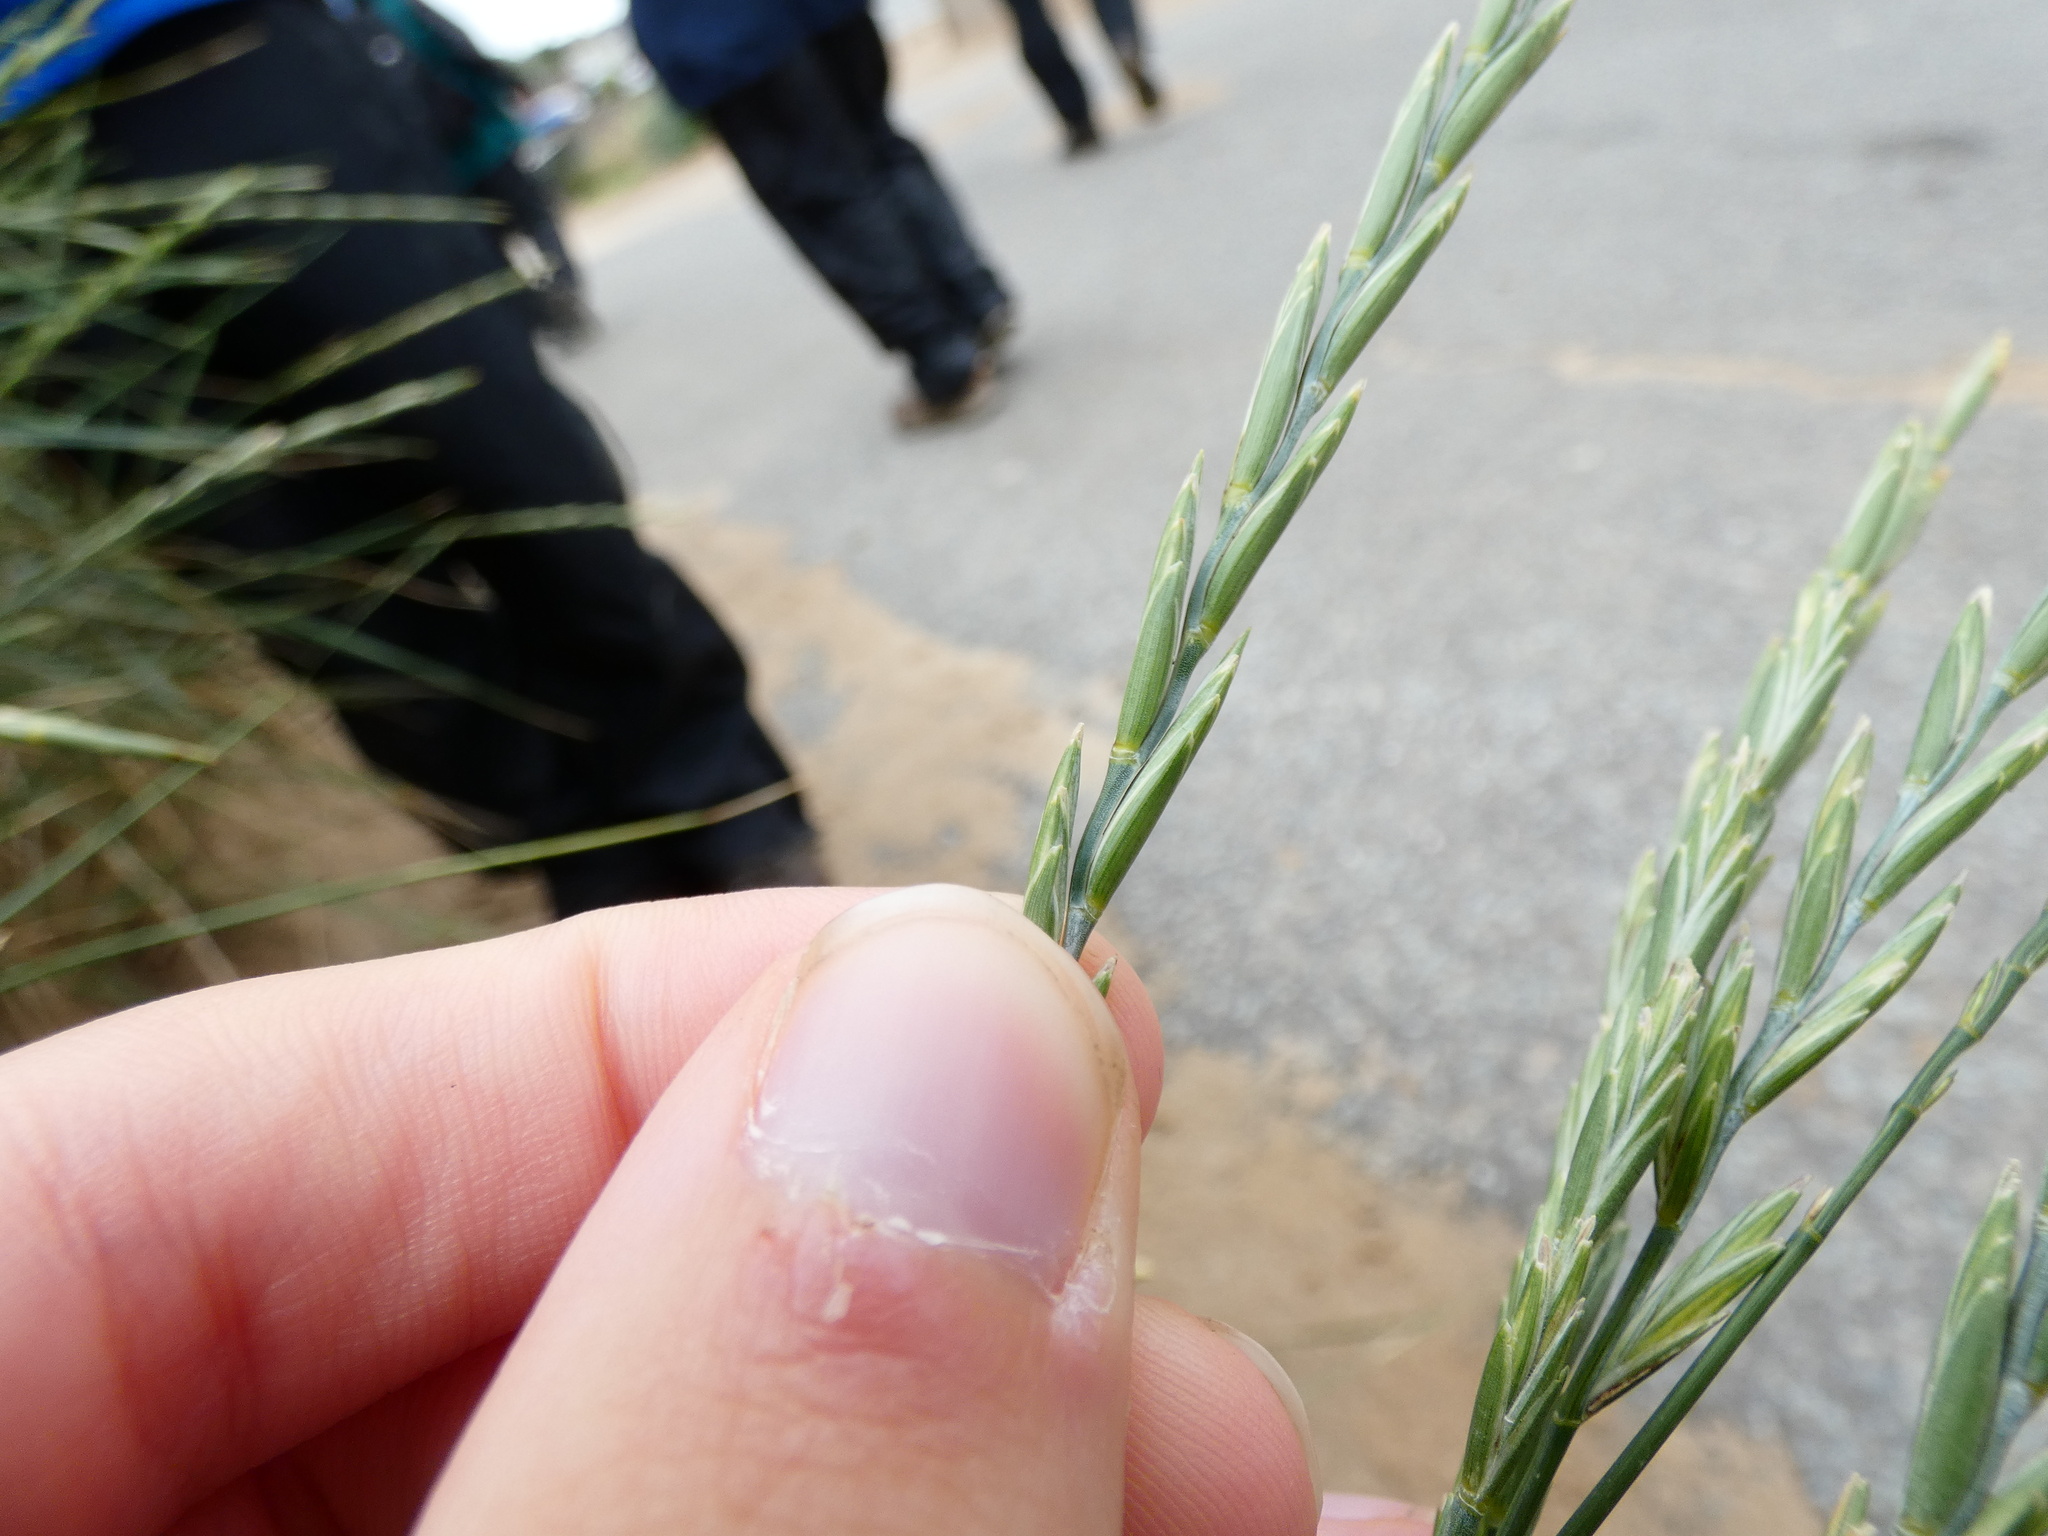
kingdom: Plantae
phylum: Tracheophyta
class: Liliopsida
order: Poales
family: Poaceae
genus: Elymus
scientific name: Elymus athericus
